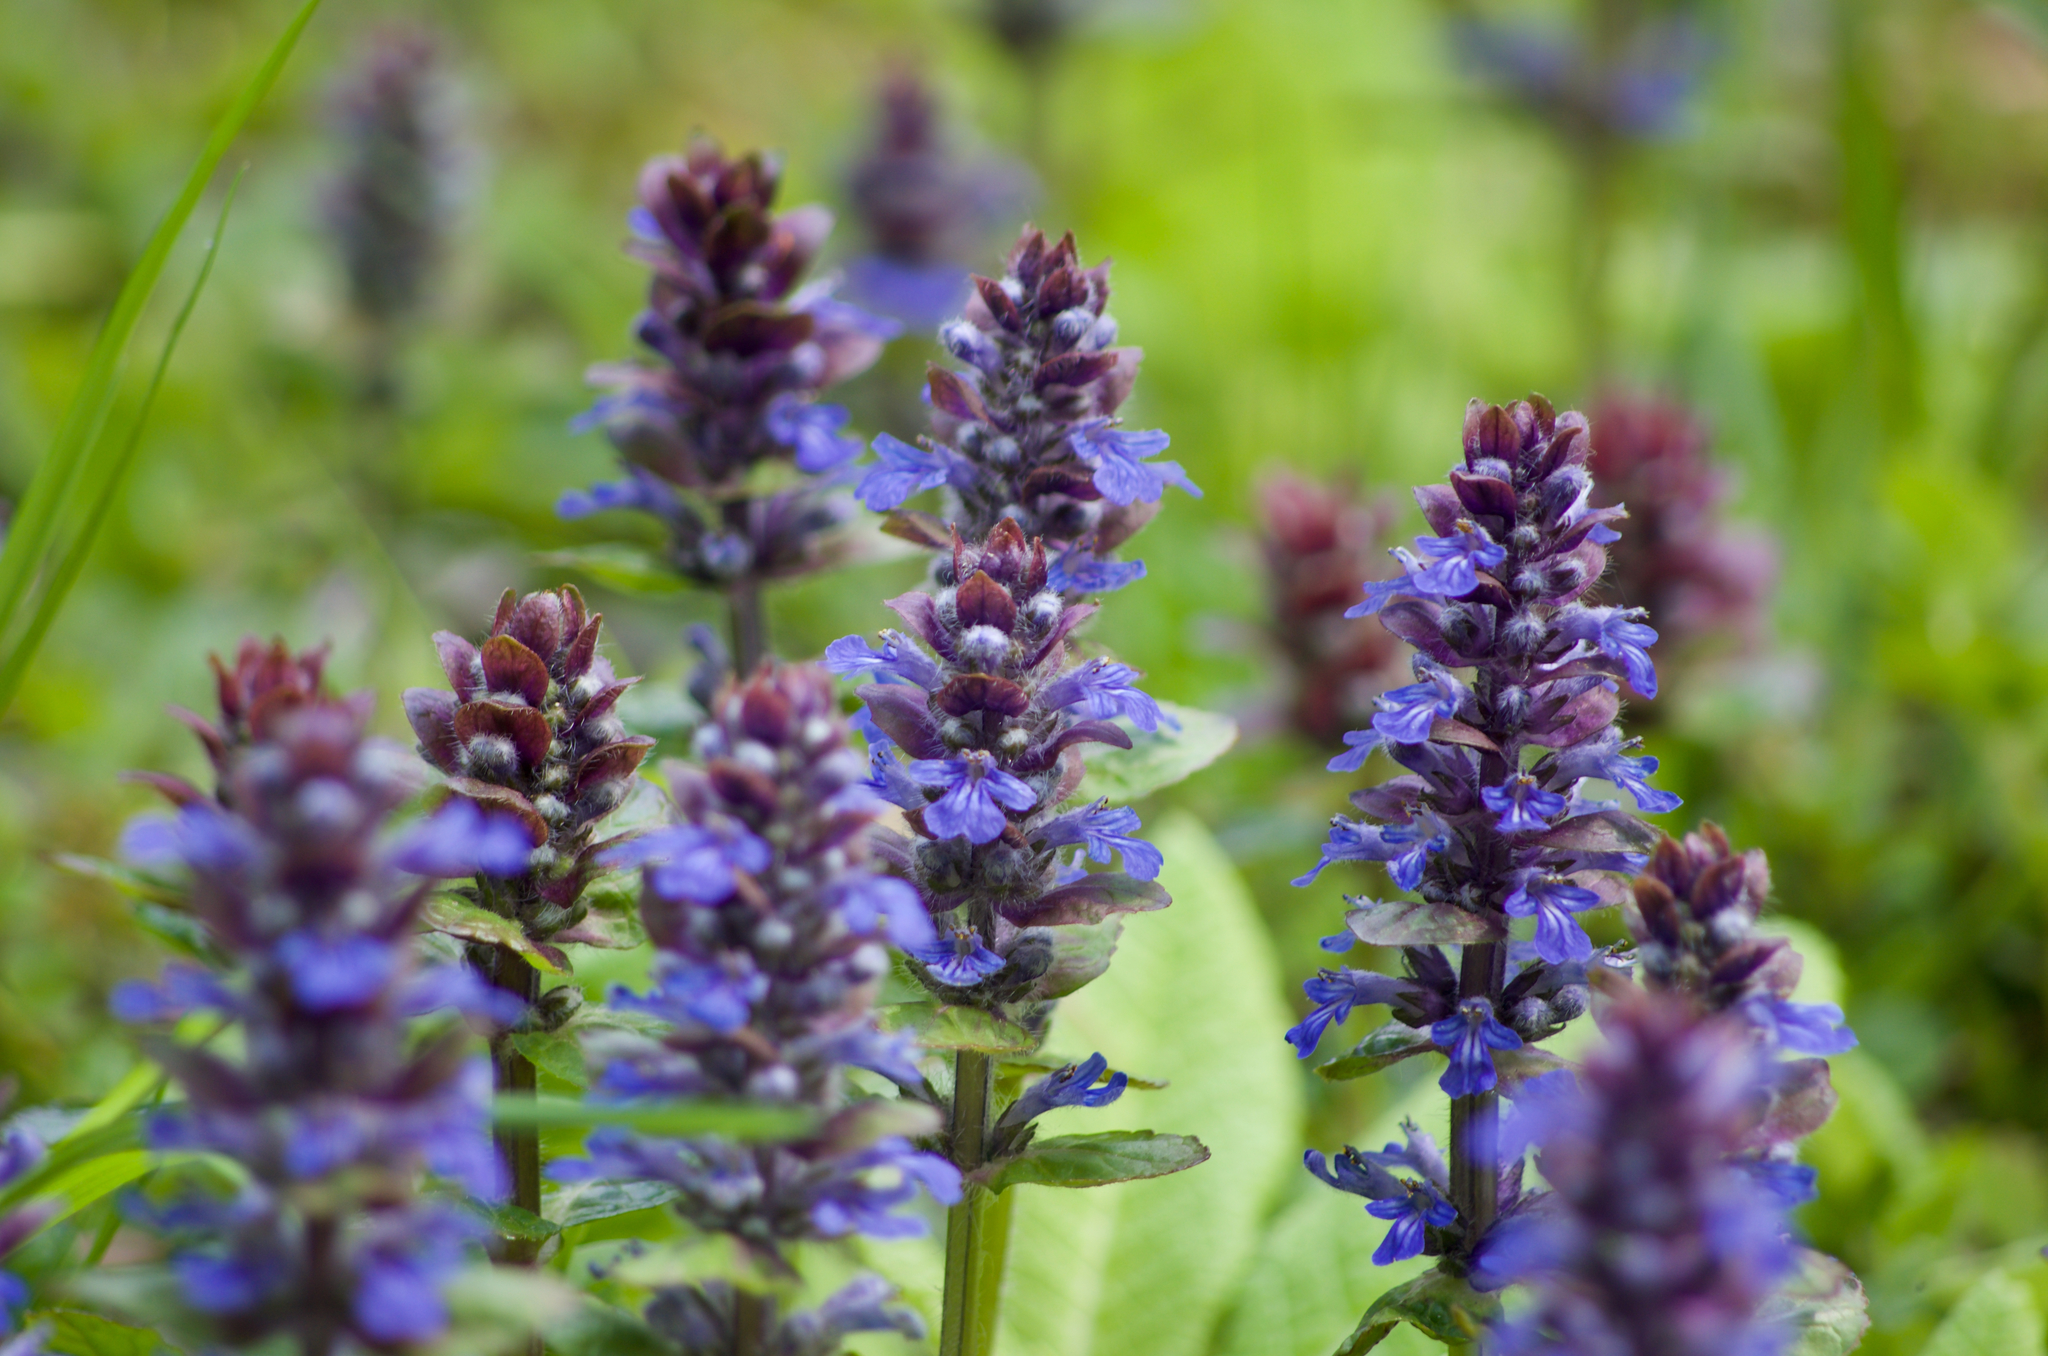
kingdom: Plantae
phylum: Tracheophyta
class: Magnoliopsida
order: Lamiales
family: Lamiaceae
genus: Ajuga
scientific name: Ajuga reptans
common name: Bugle
